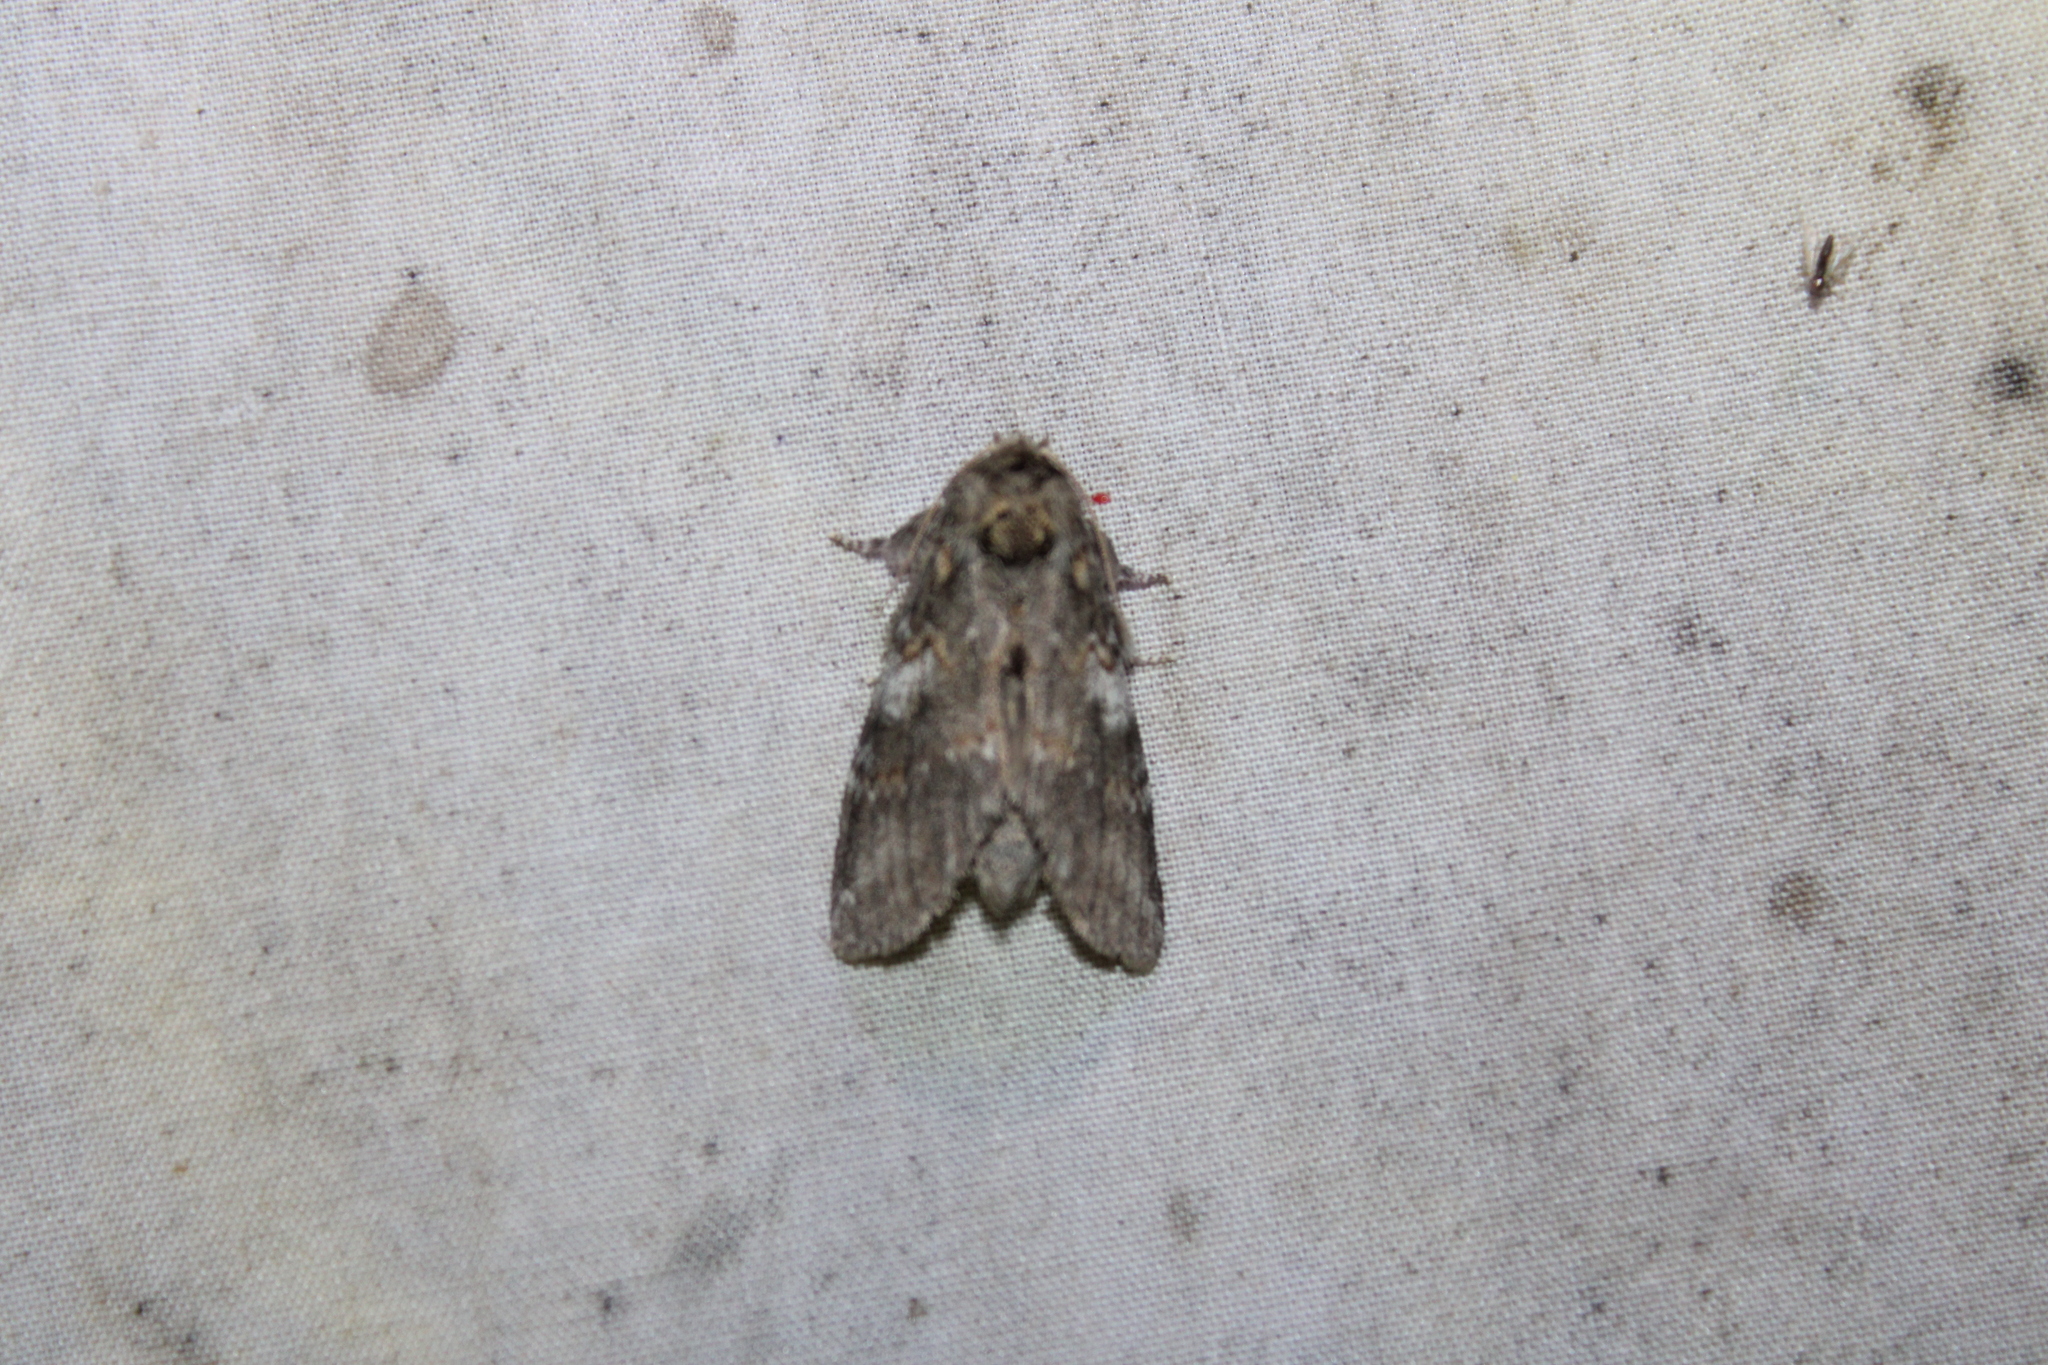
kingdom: Animalia
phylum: Arthropoda
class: Insecta
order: Lepidoptera
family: Notodontidae
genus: Peridea
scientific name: Peridea angulosa
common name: Angulose prominent
